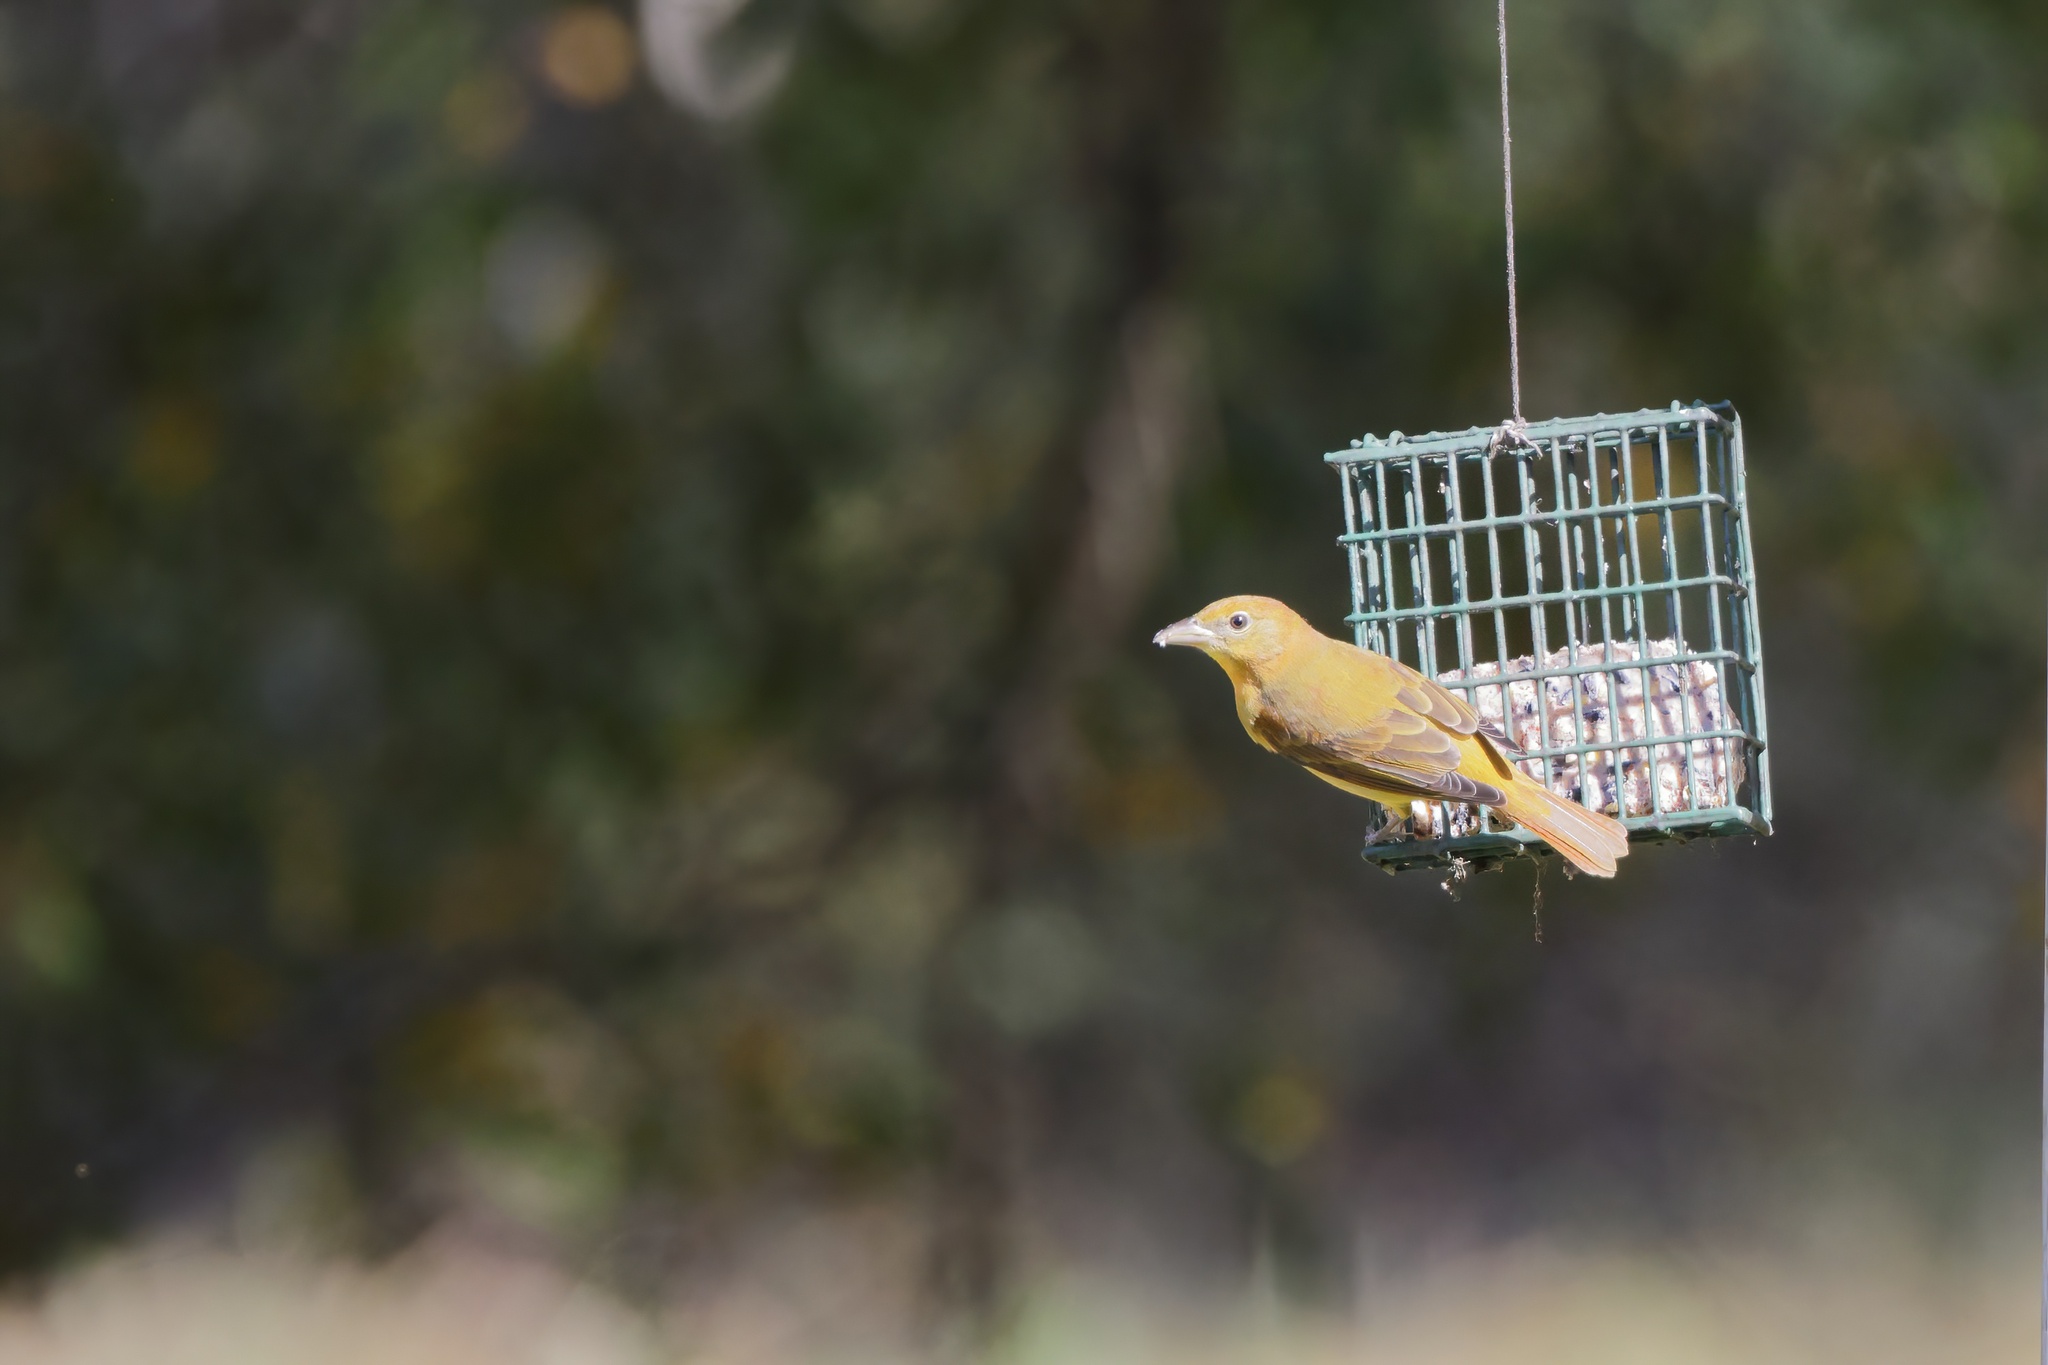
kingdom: Animalia
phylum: Chordata
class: Aves
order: Passeriformes
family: Cardinalidae
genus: Piranga
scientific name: Piranga rubra
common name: Summer tanager
